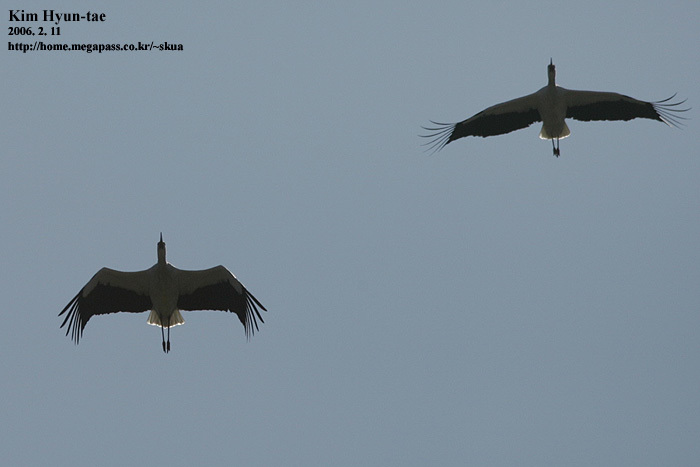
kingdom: Animalia
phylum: Chordata
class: Aves
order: Ciconiiformes
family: Ciconiidae
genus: Ciconia
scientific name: Ciconia boyciana
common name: Oriental stork
